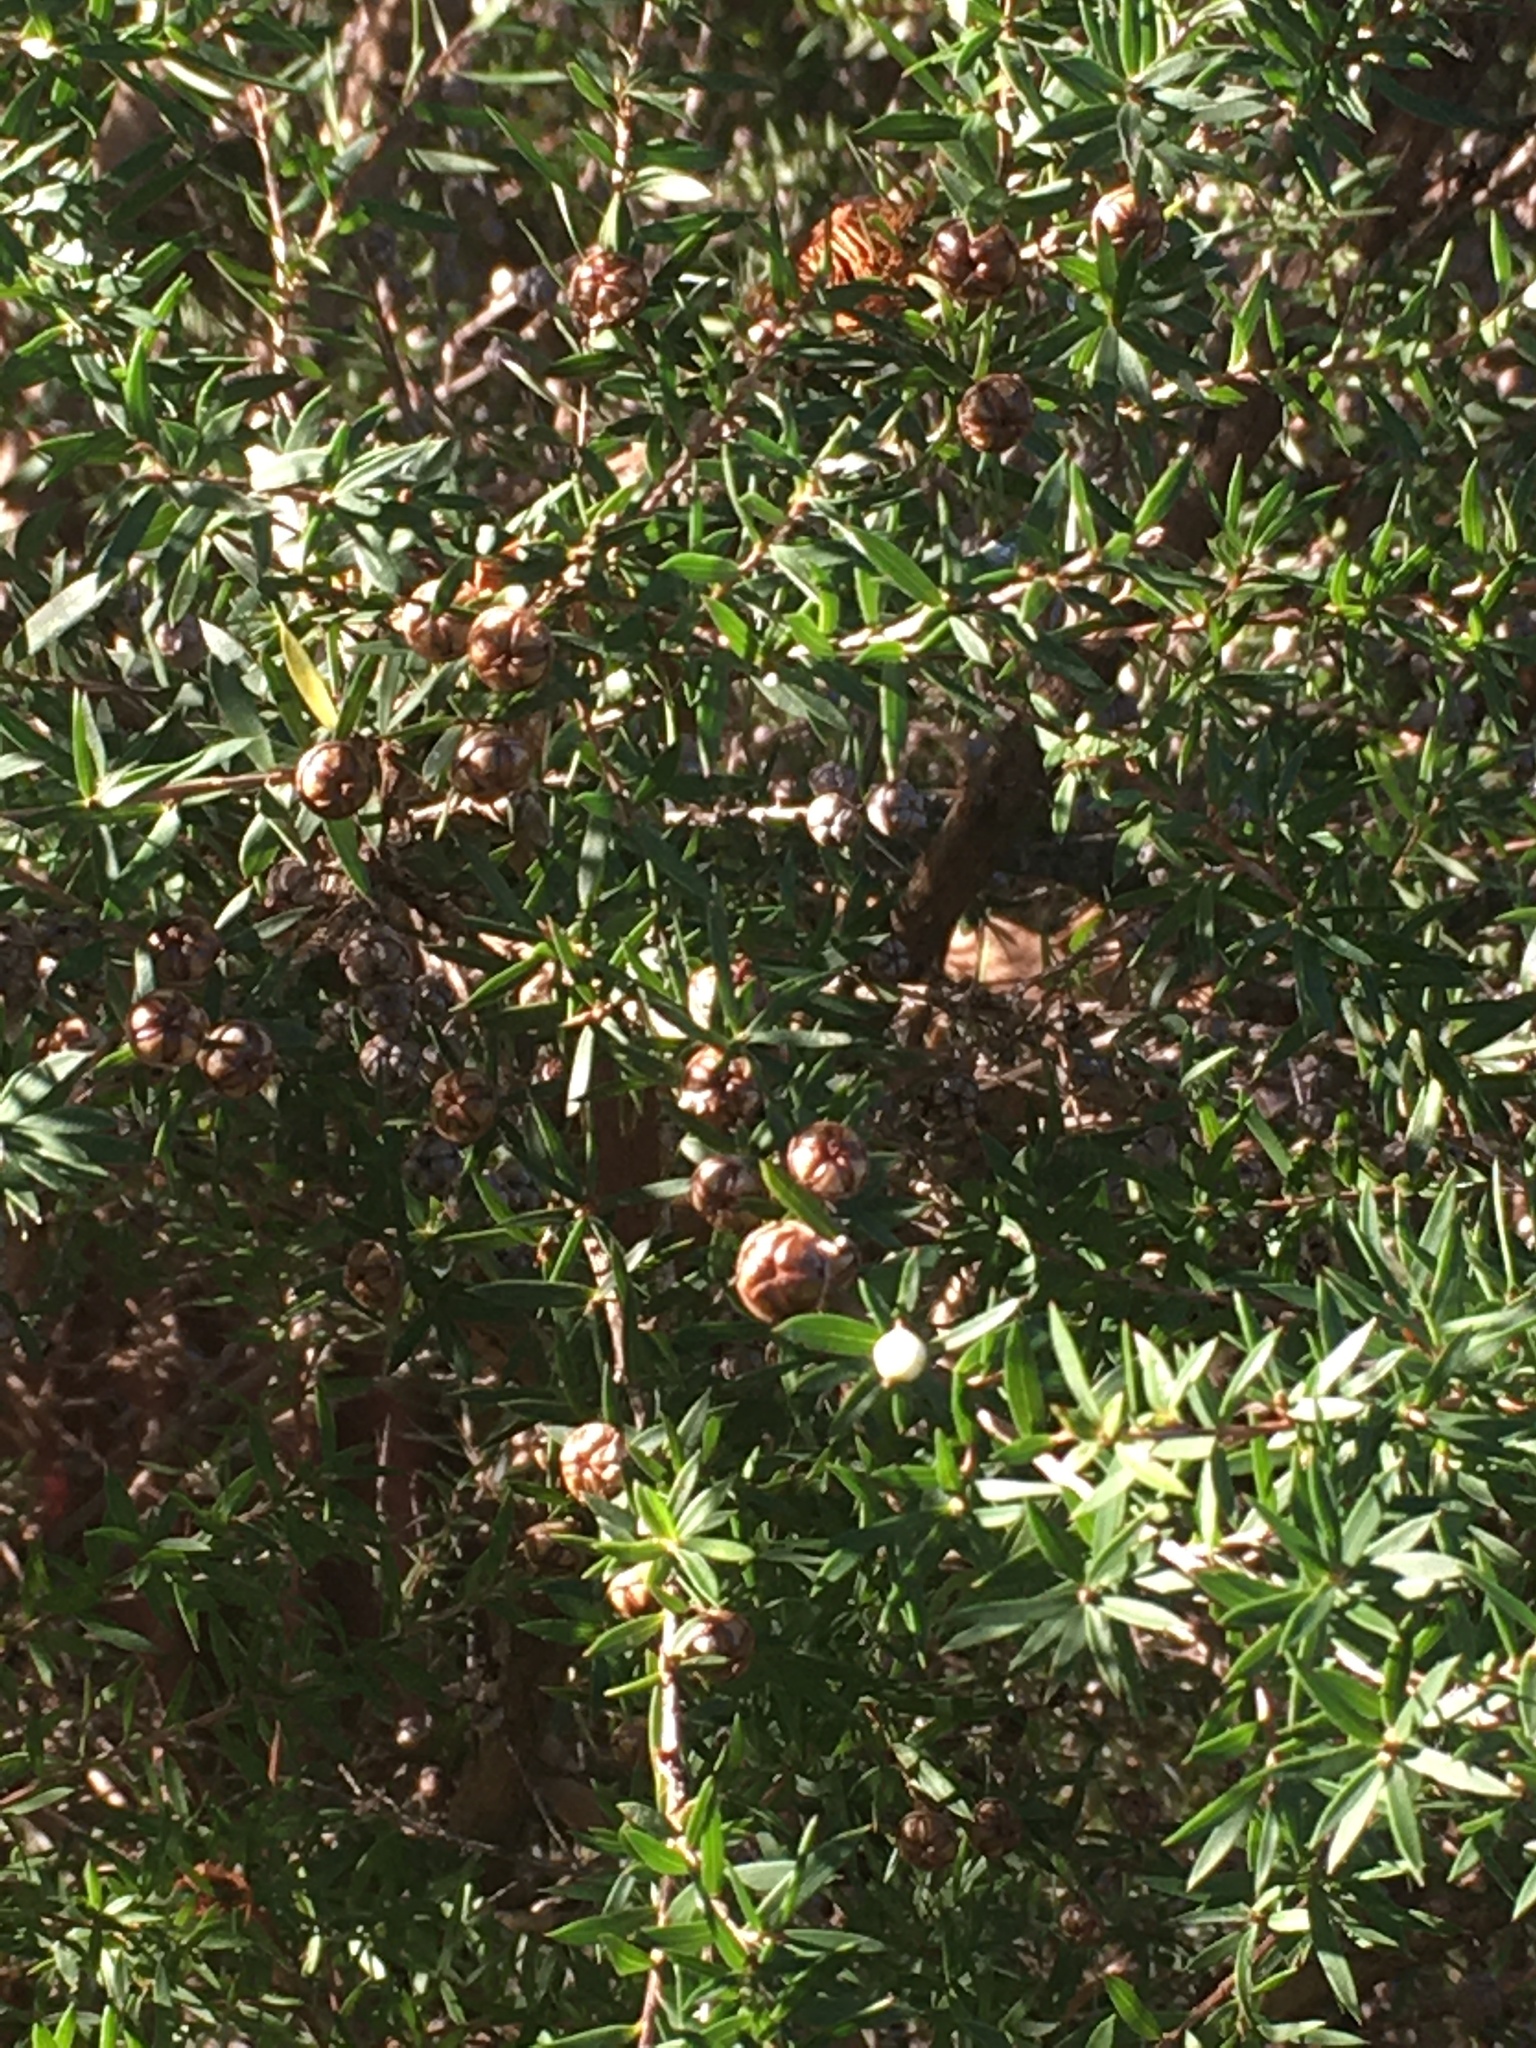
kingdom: Plantae
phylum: Tracheophyta
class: Magnoliopsida
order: Myrtales
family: Myrtaceae
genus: Leptospermum
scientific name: Leptospermum scoparium
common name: Broom tea-tree
